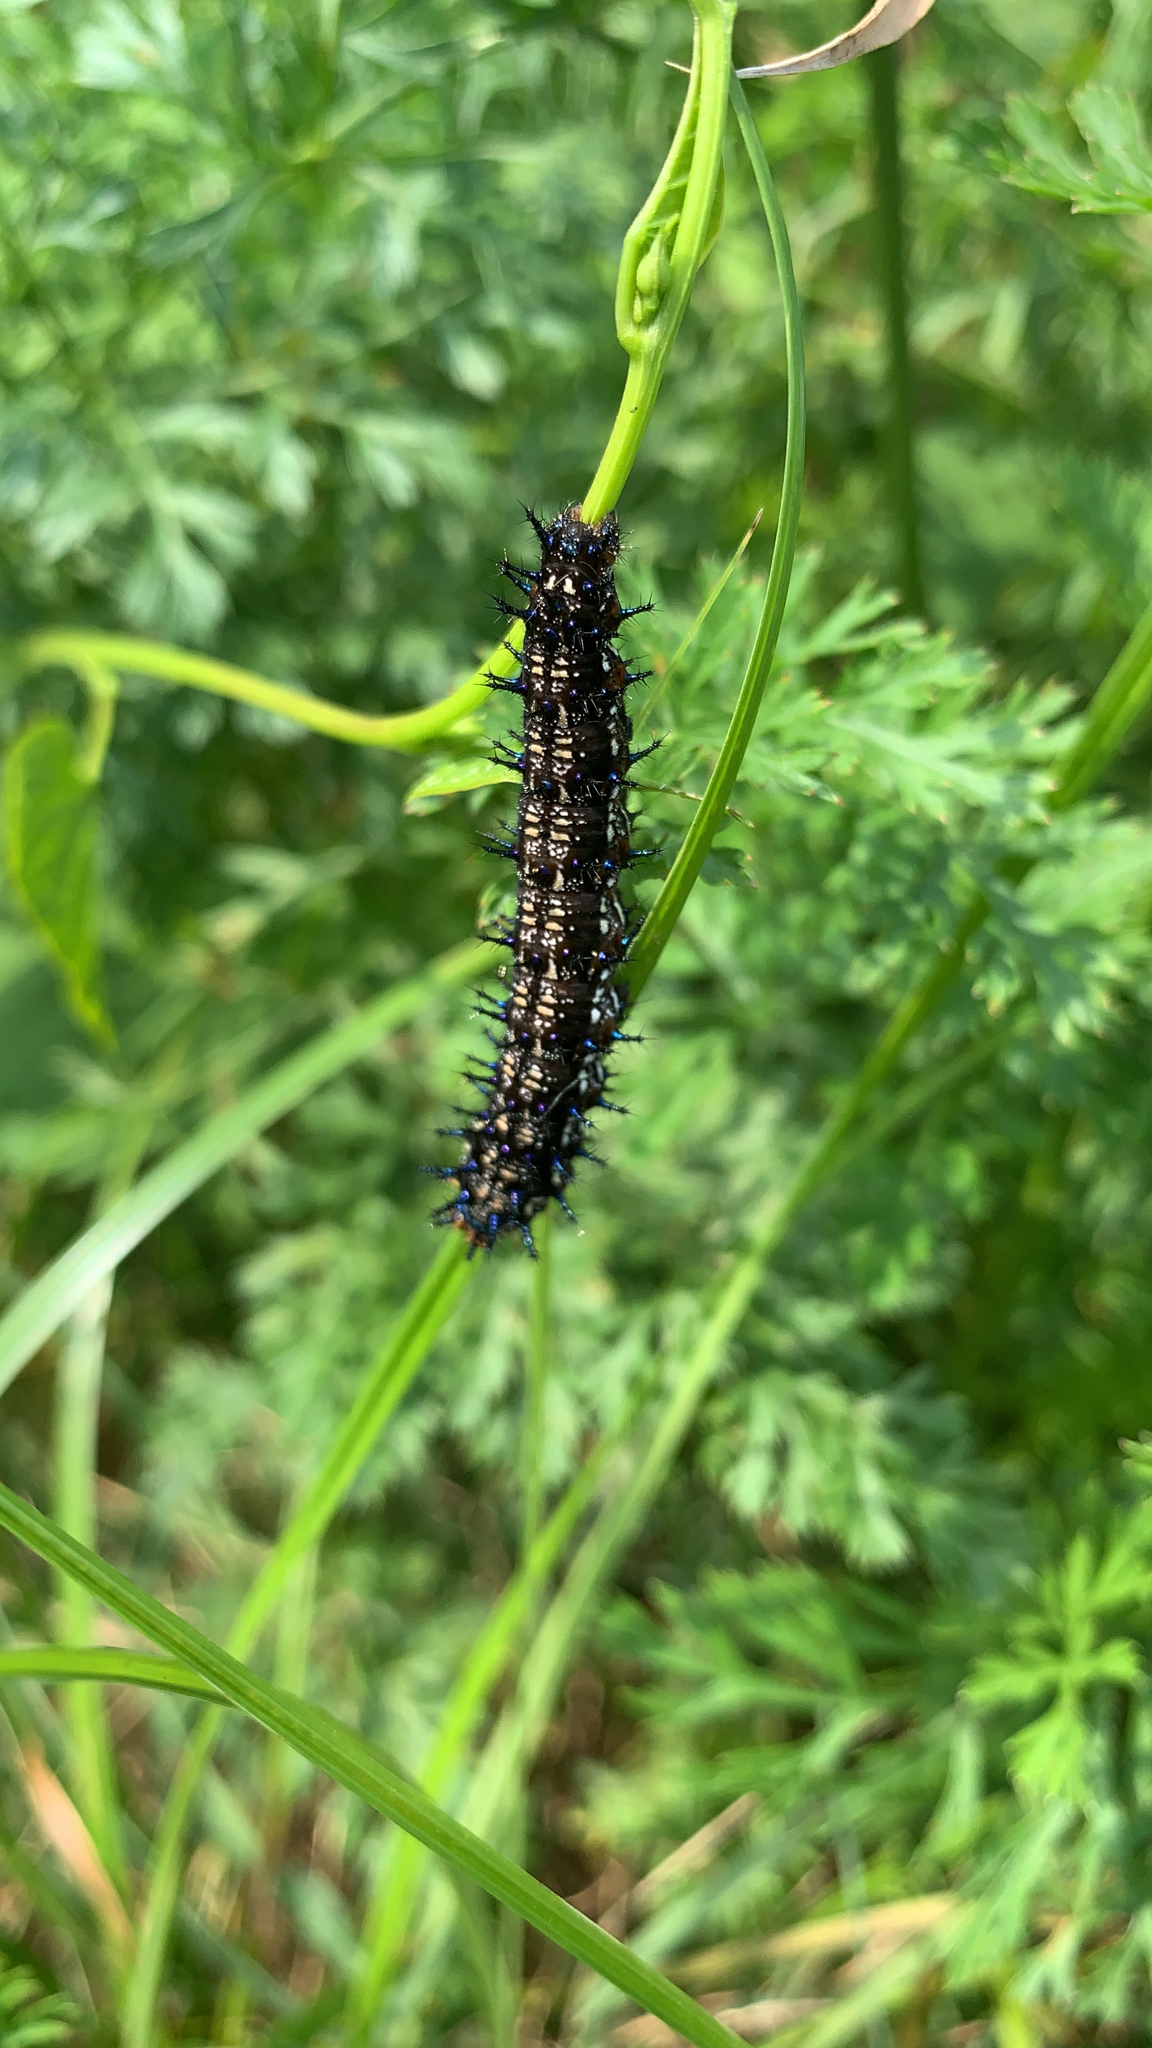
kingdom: Animalia
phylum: Arthropoda
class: Insecta
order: Lepidoptera
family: Nymphalidae
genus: Junonia
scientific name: Junonia coenia
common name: Common buckeye
